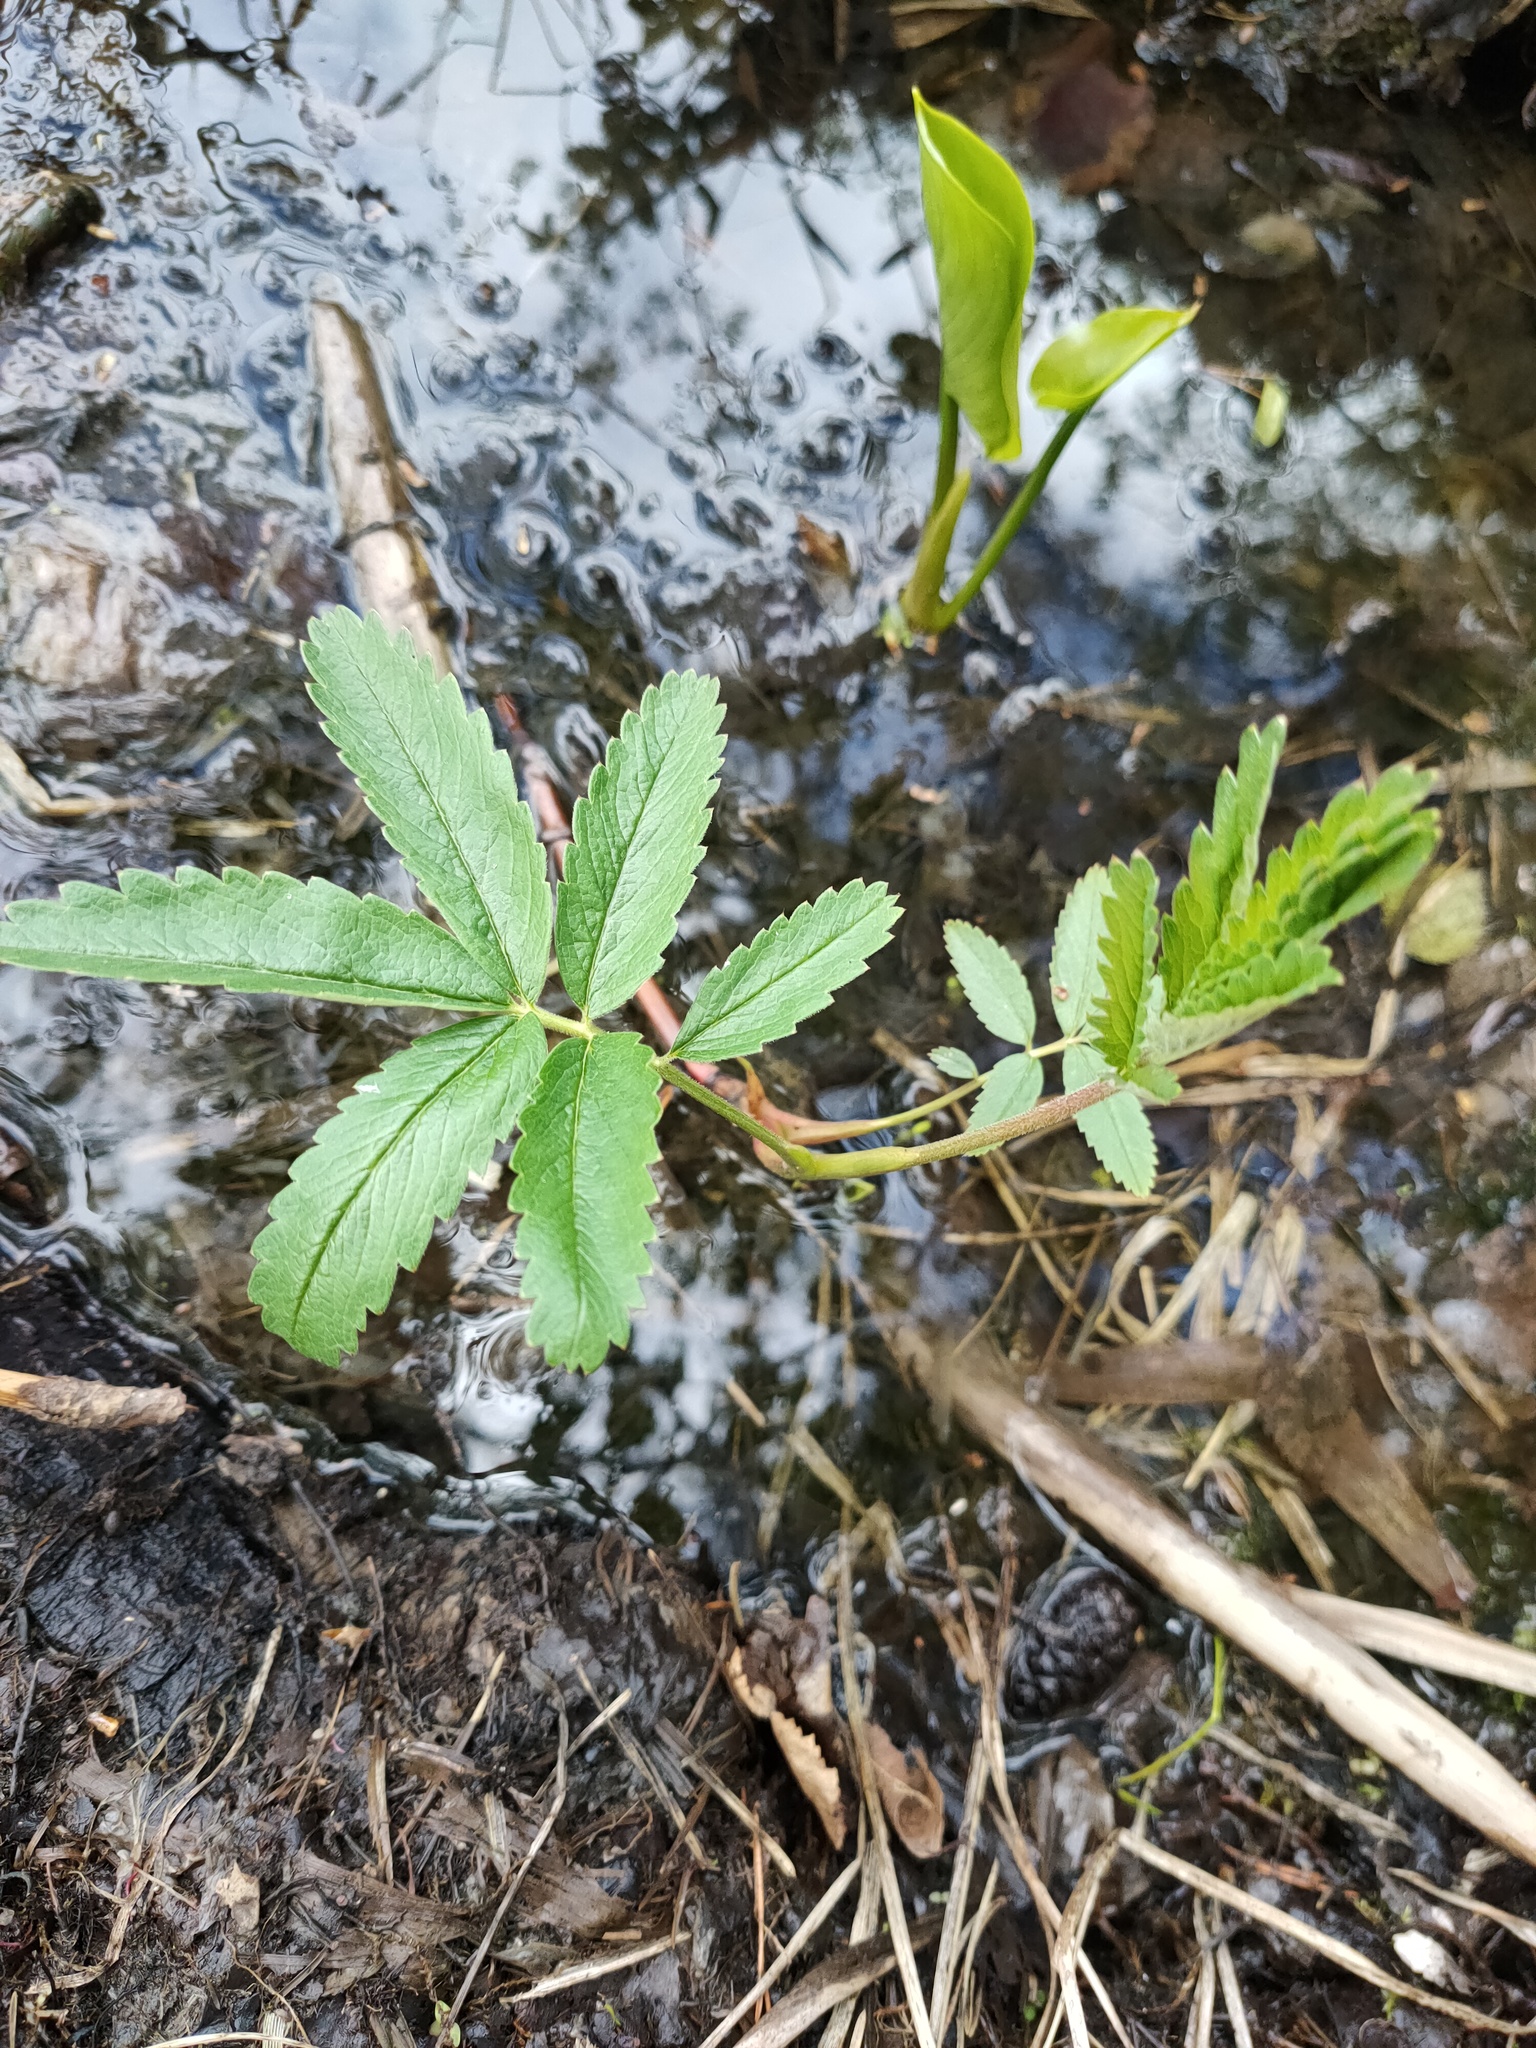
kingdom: Plantae
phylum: Tracheophyta
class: Magnoliopsida
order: Rosales
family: Rosaceae
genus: Comarum
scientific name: Comarum palustre
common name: Marsh cinquefoil
